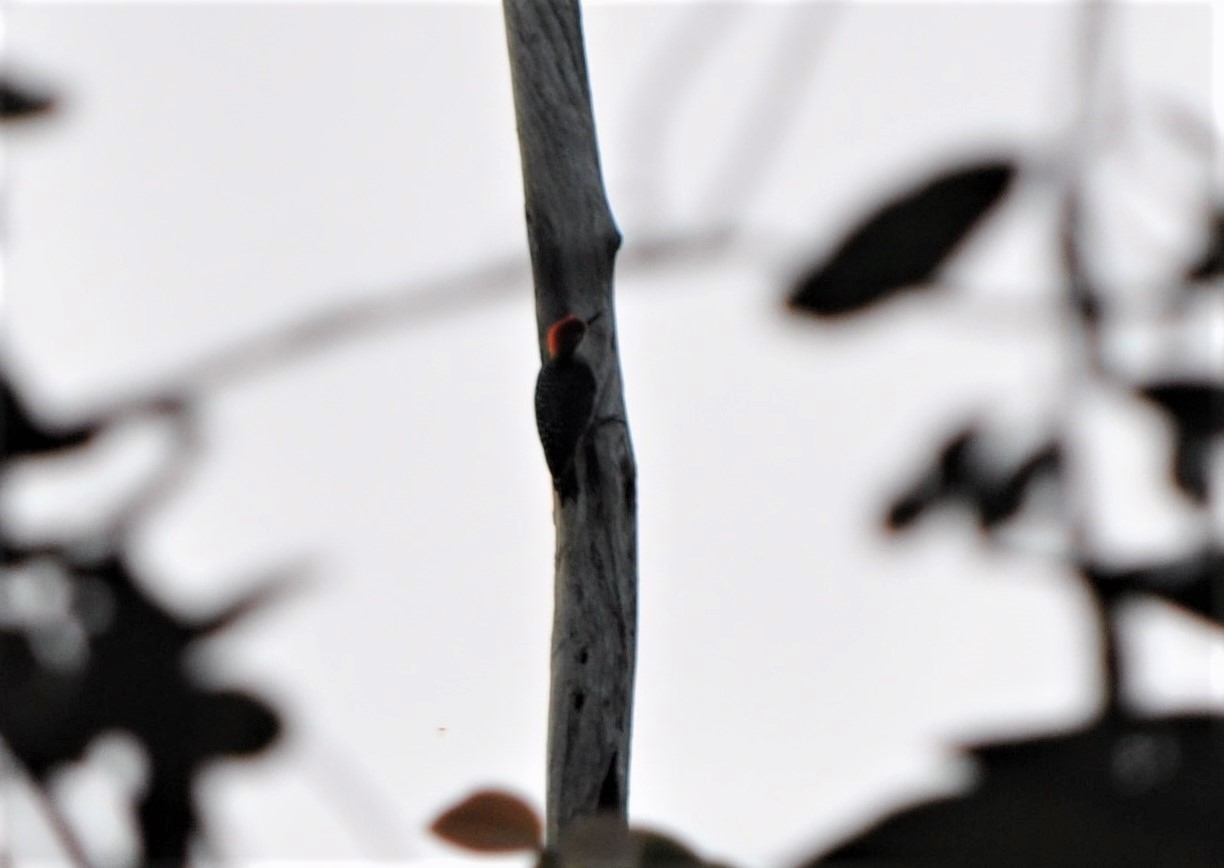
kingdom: Animalia
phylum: Chordata
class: Aves
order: Piciformes
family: Picidae
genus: Melanerpes
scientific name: Melanerpes pucherani
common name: Black-cheeked woodpecker
